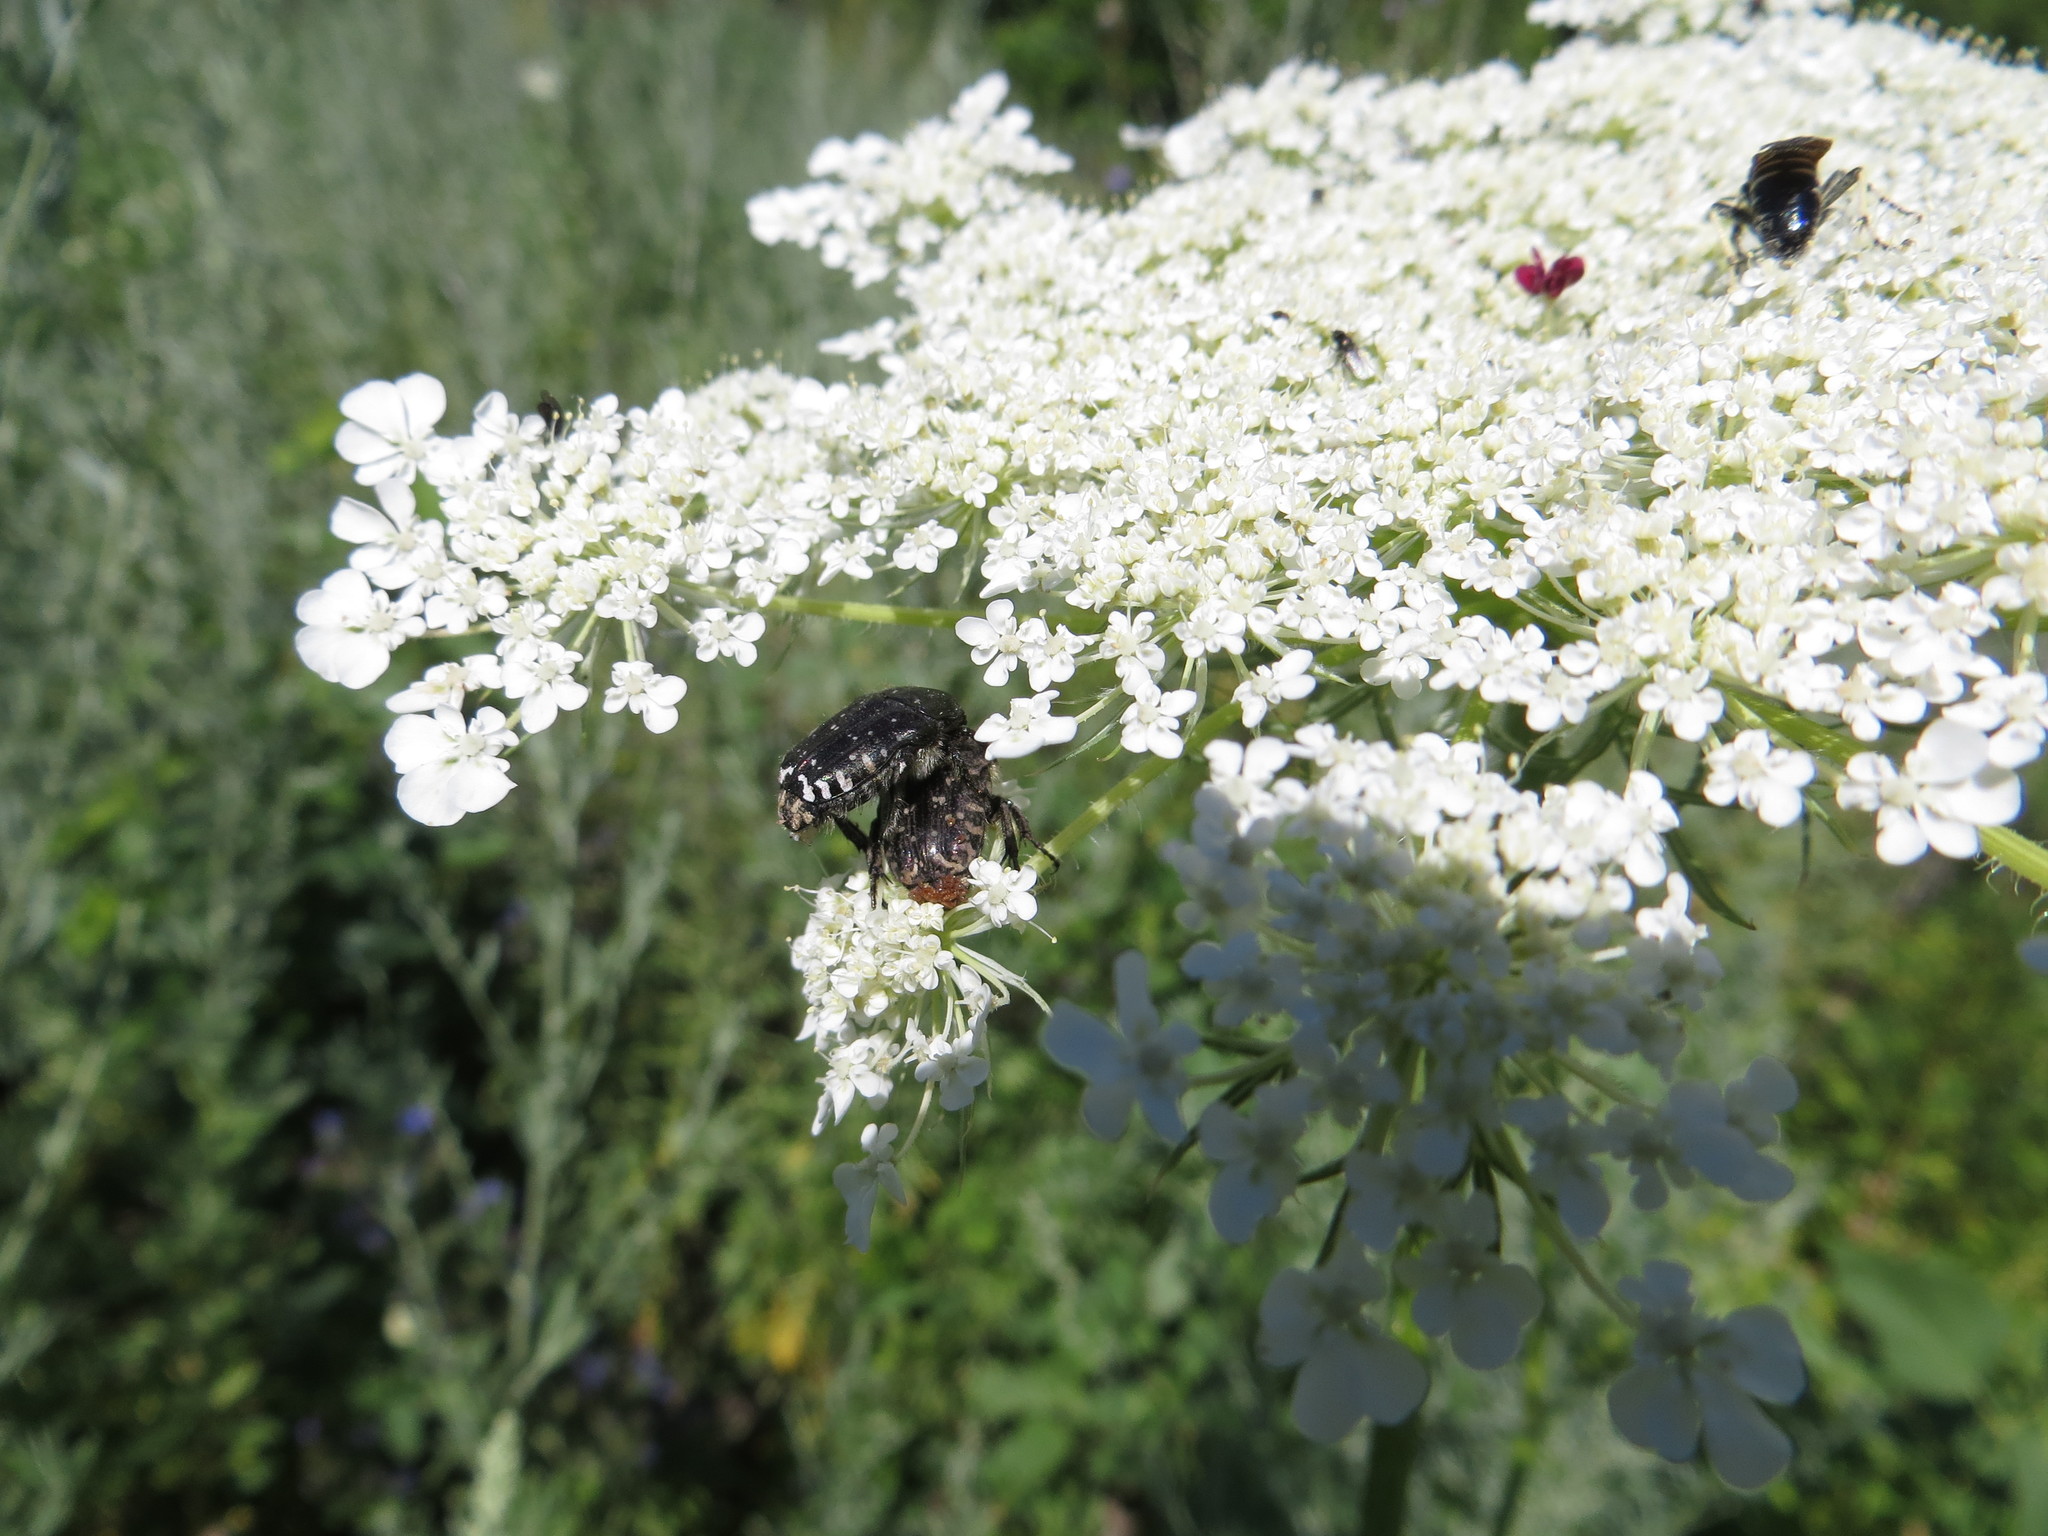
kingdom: Animalia
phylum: Arthropoda
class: Insecta
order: Coleoptera
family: Scarabaeidae
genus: Oxythyrea
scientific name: Oxythyrea funesta
